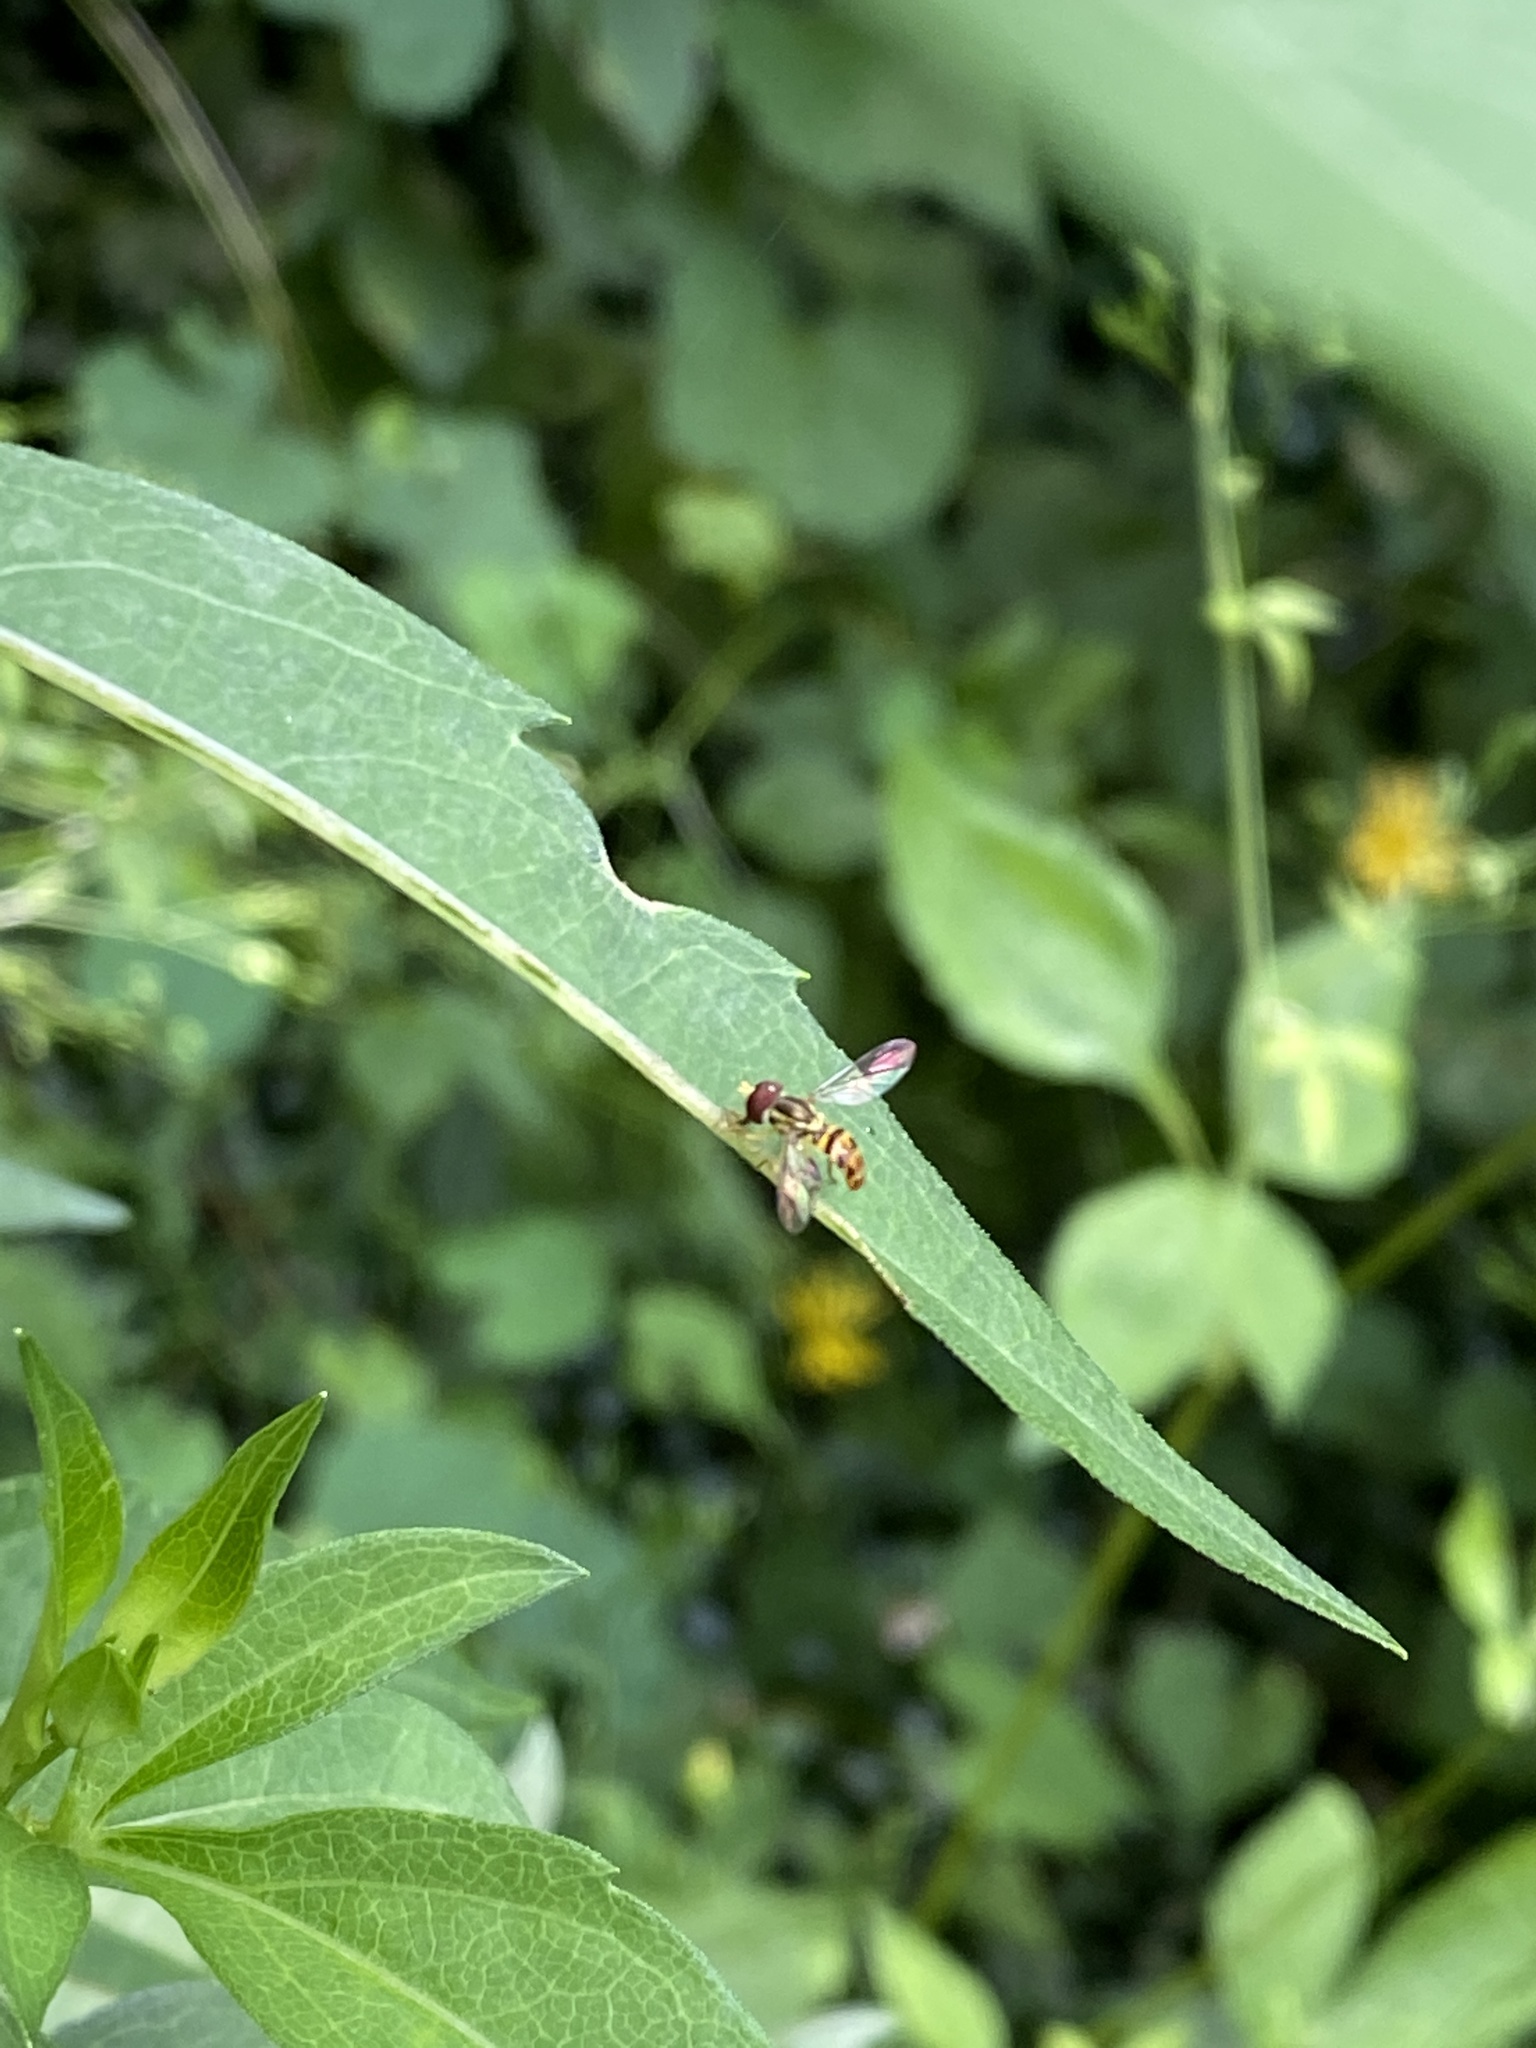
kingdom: Animalia
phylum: Arthropoda
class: Insecta
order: Diptera
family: Syrphidae
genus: Toxomerus
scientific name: Toxomerus geminatus
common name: Eastern calligrapher
